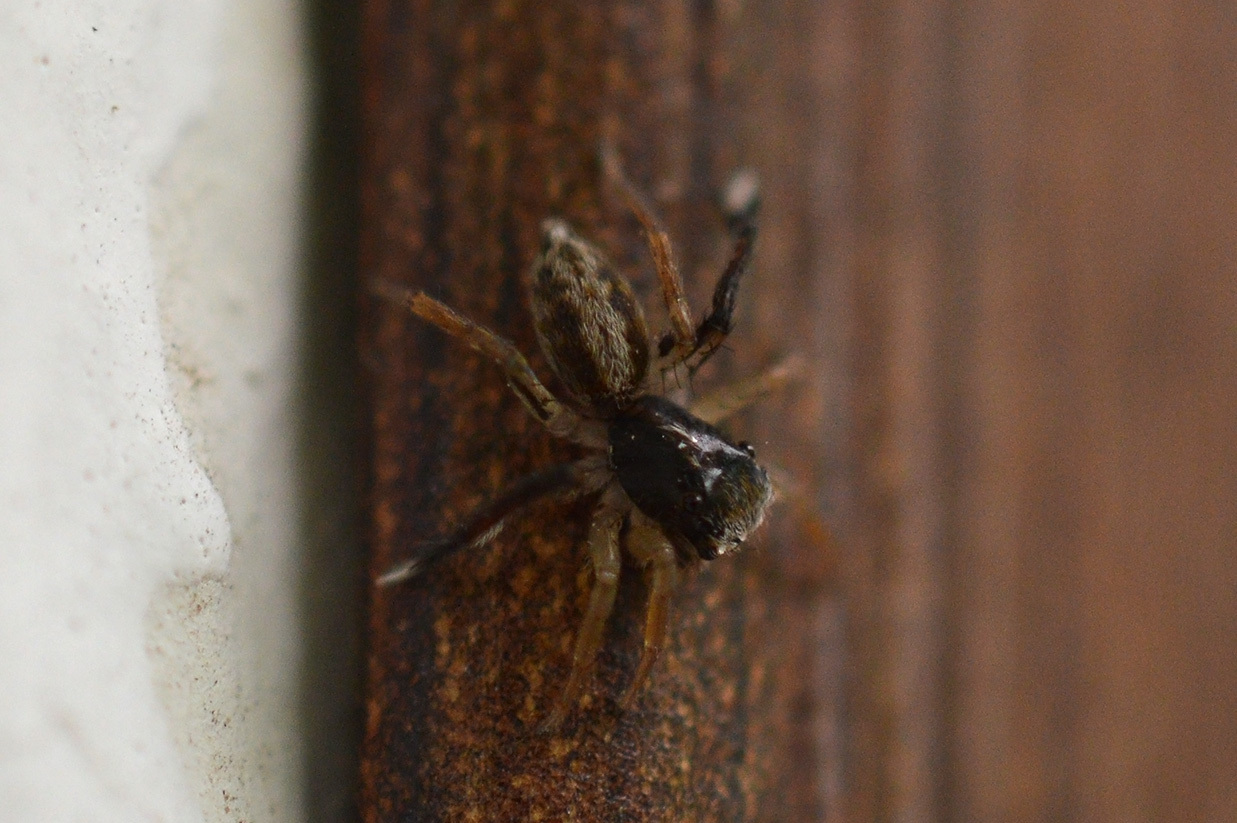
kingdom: Animalia
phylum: Arthropoda
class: Arachnida
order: Araneae
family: Salticidae
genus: Saitis
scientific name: Saitis tauricus
